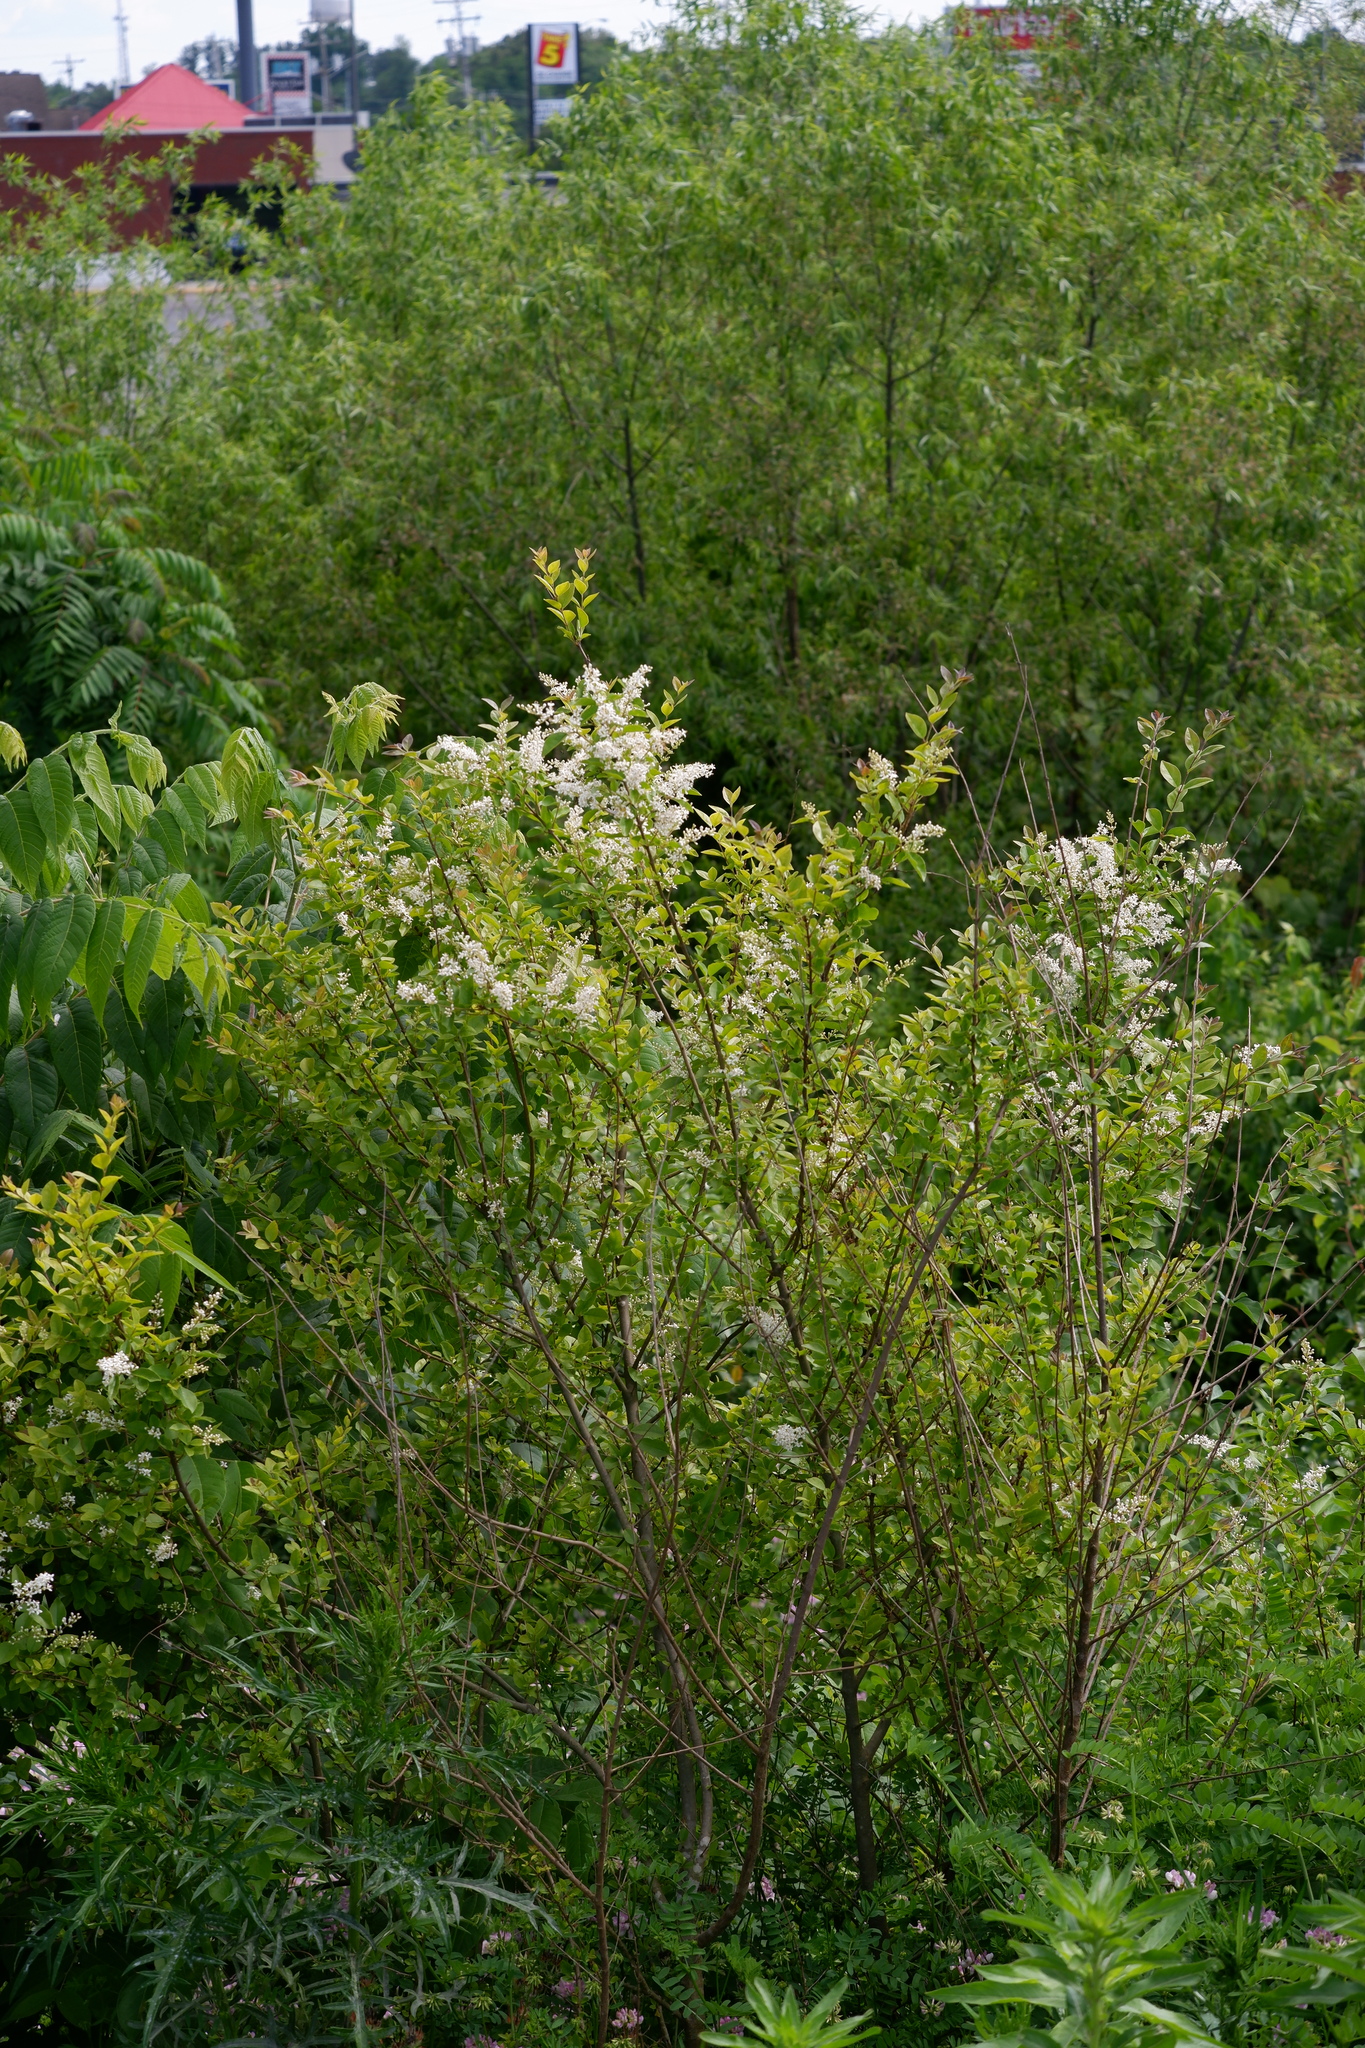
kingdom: Plantae
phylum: Tracheophyta
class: Magnoliopsida
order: Lamiales
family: Oleaceae
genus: Ligustrum
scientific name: Ligustrum sinense
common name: Chinese privet
